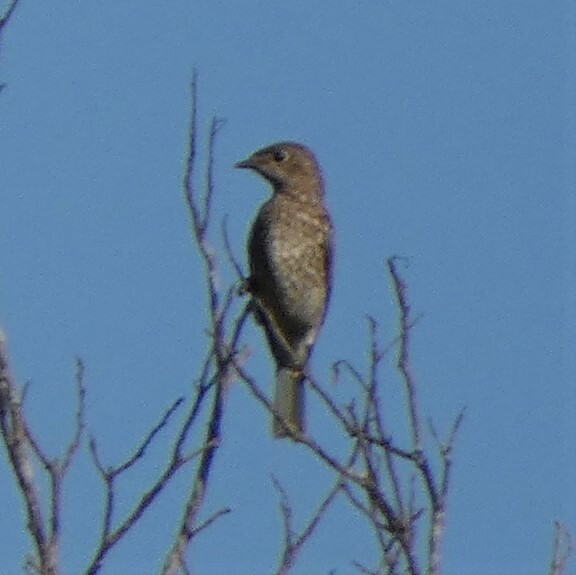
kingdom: Animalia
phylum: Chordata
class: Aves
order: Passeriformes
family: Turdidae
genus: Sialia
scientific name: Sialia sialis
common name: Eastern bluebird
